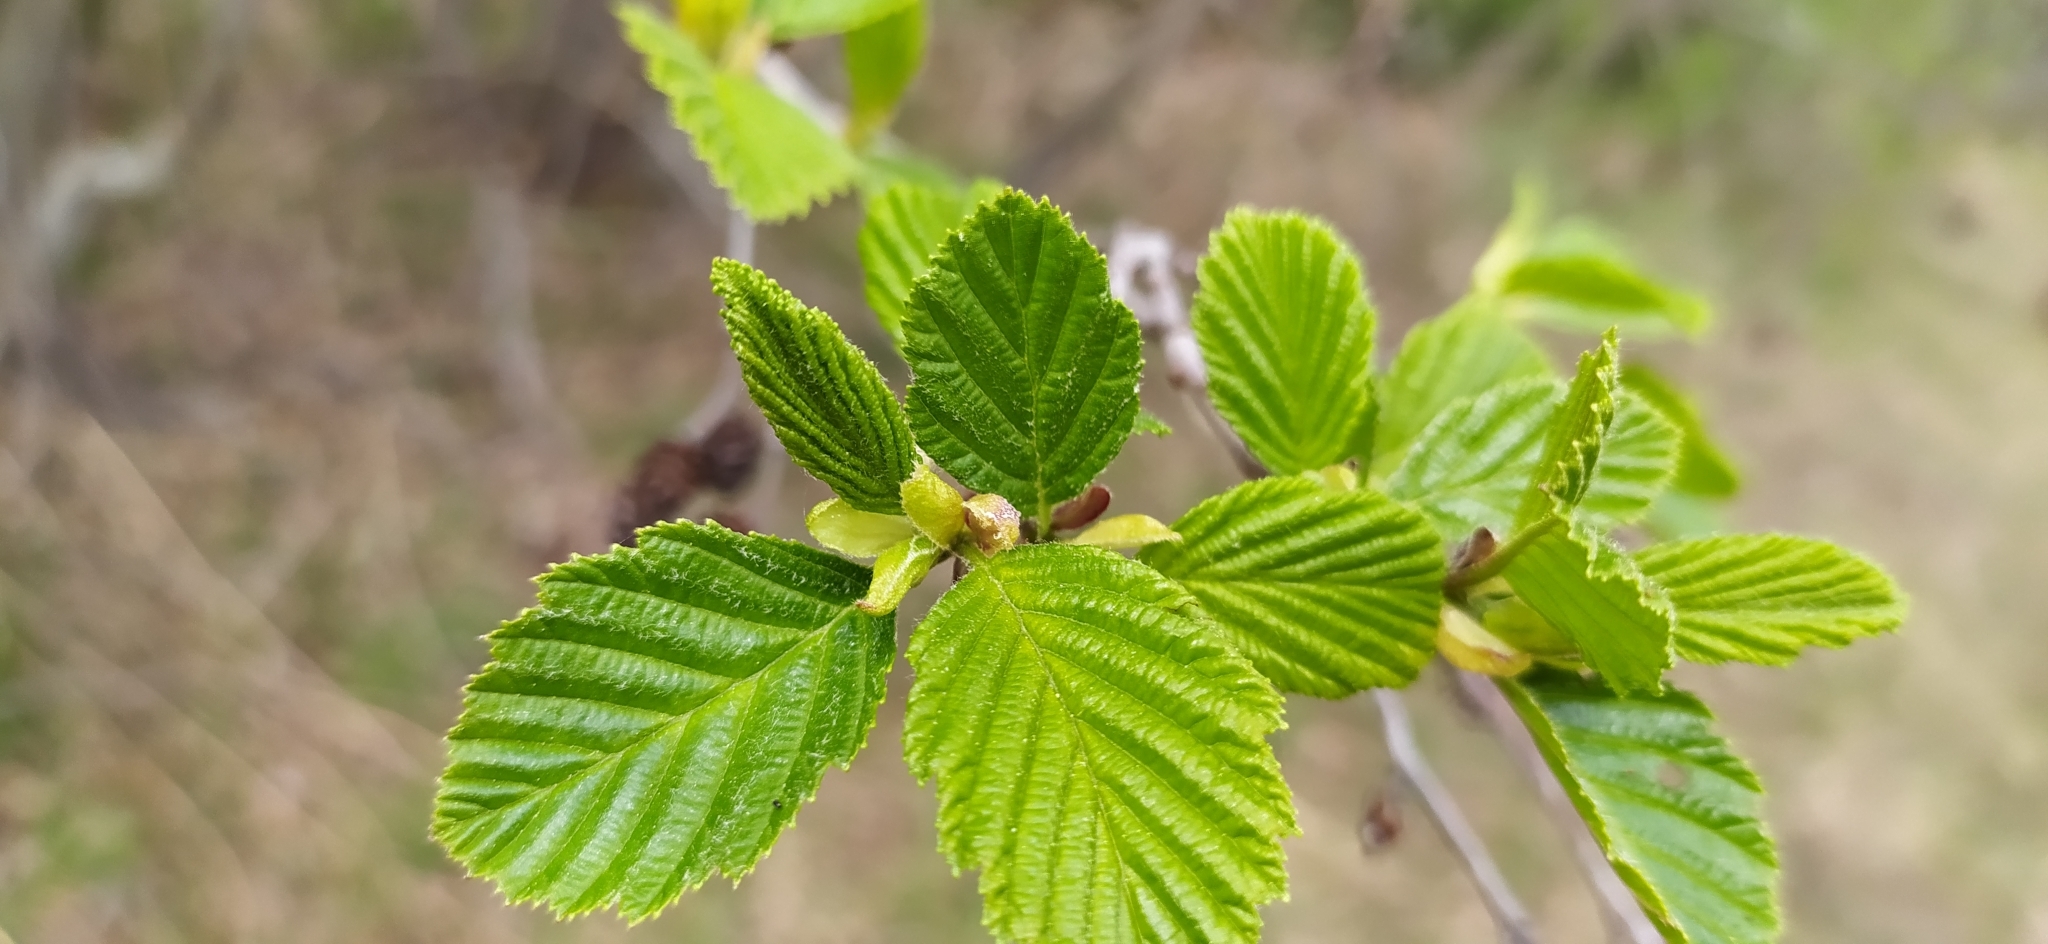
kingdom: Plantae
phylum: Tracheophyta
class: Magnoliopsida
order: Fagales
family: Betulaceae
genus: Alnus
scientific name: Alnus incana
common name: Grey alder
